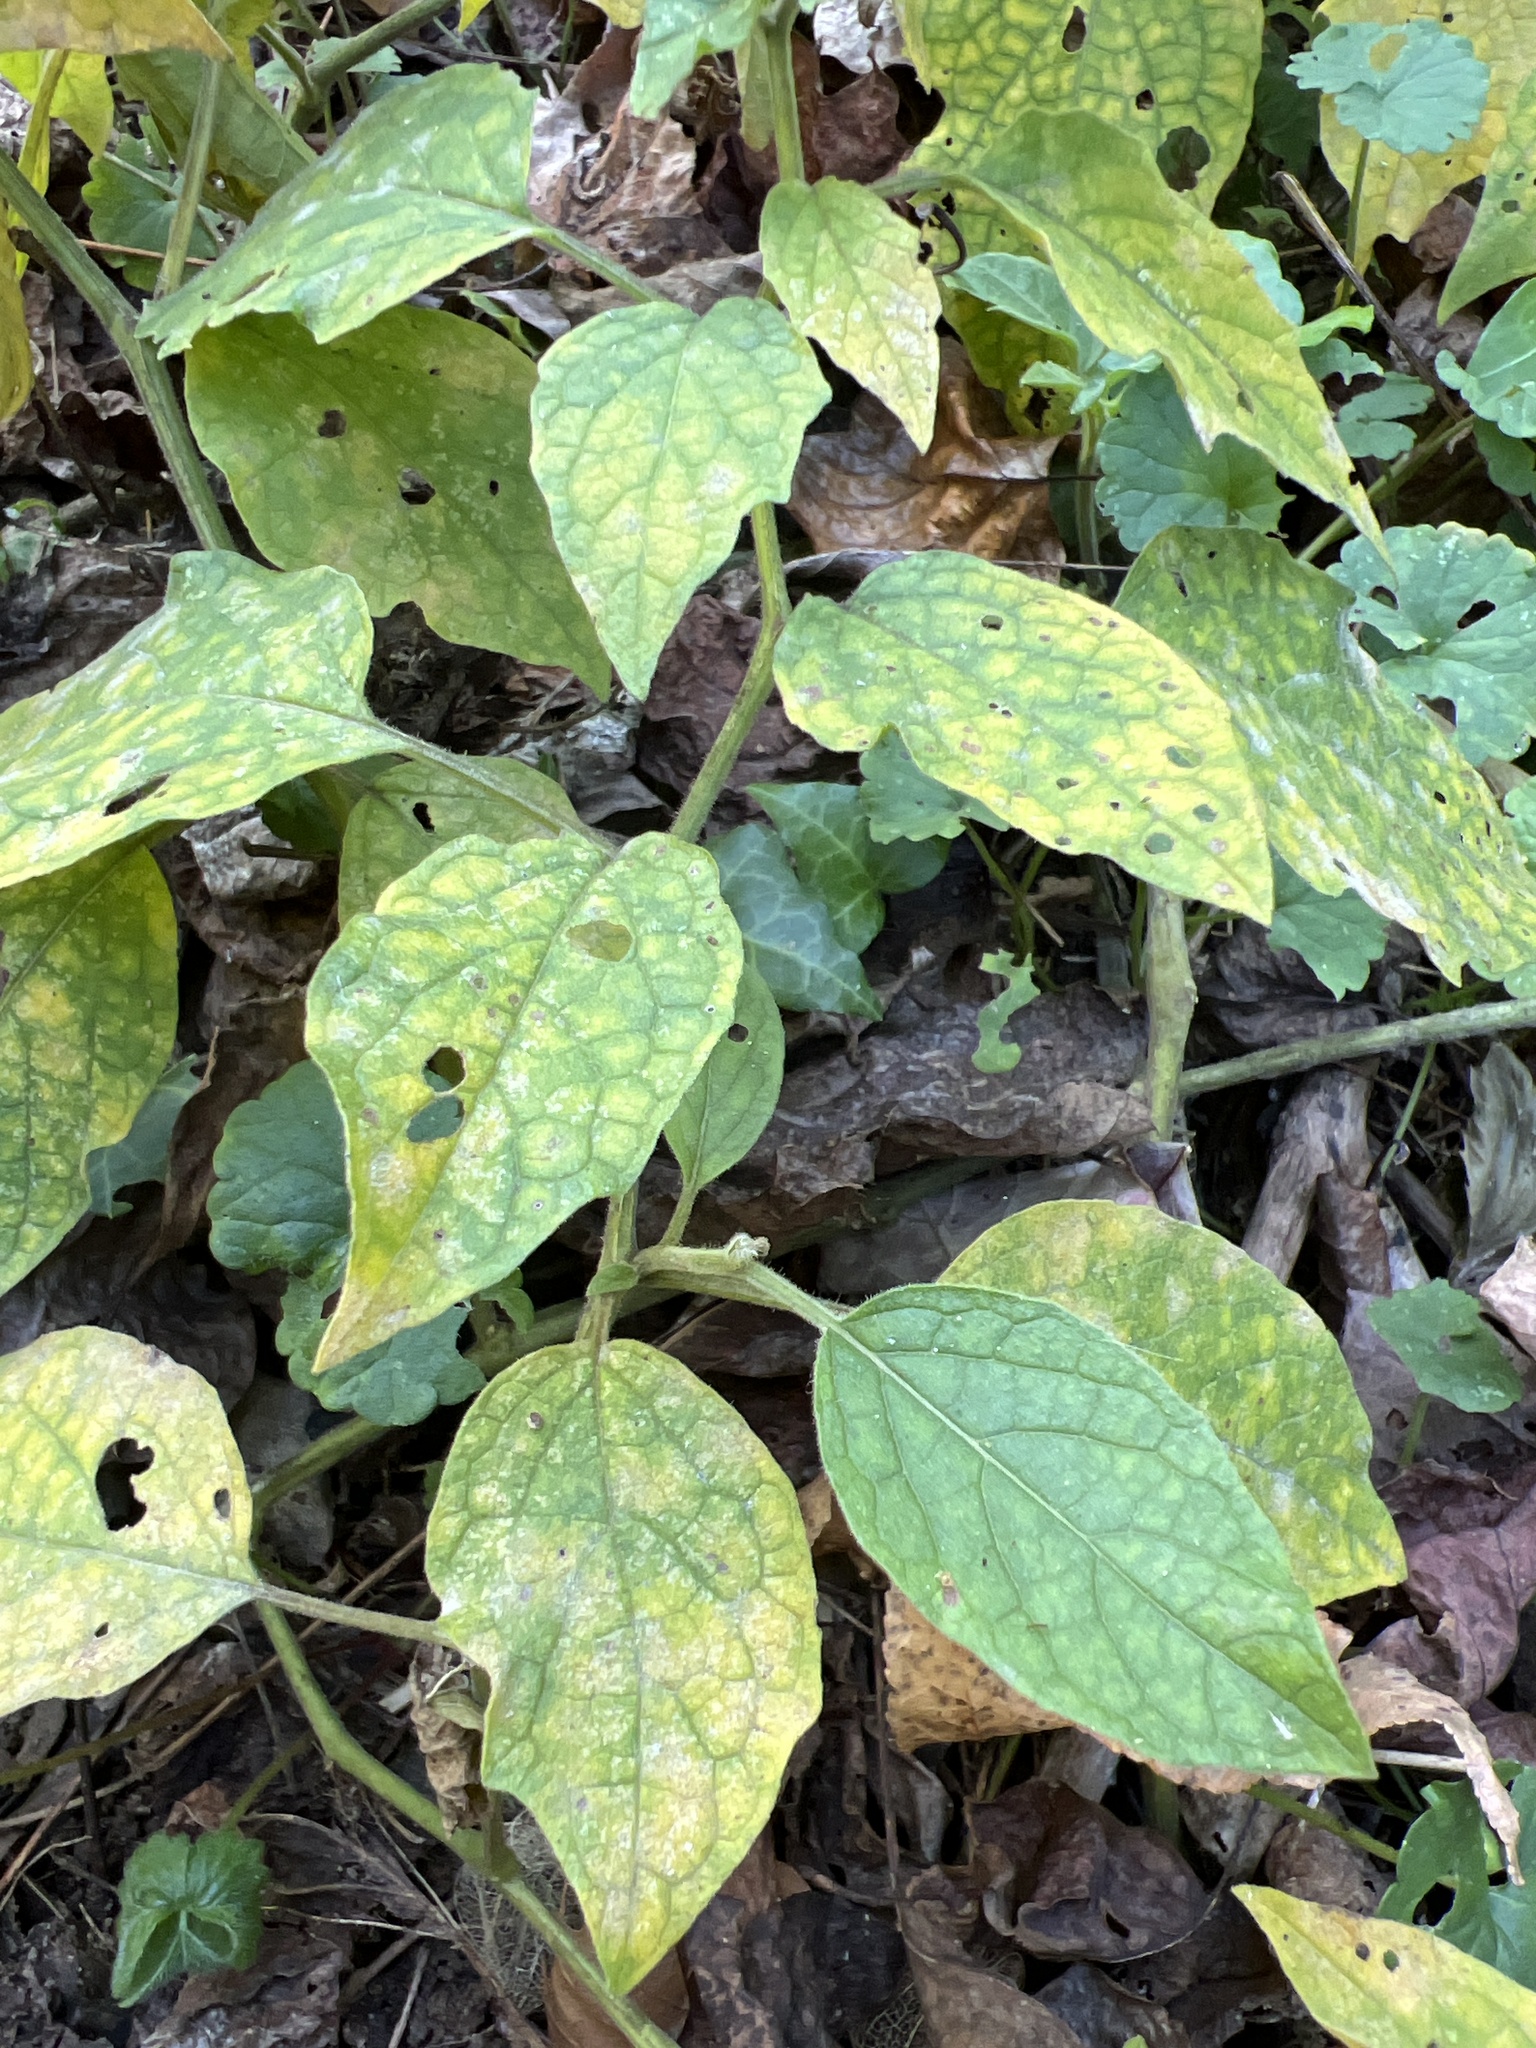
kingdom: Plantae
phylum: Tracheophyta
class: Magnoliopsida
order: Solanales
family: Solanaceae
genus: Physalis
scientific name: Physalis heterophylla
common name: Clammy ground-cherry
